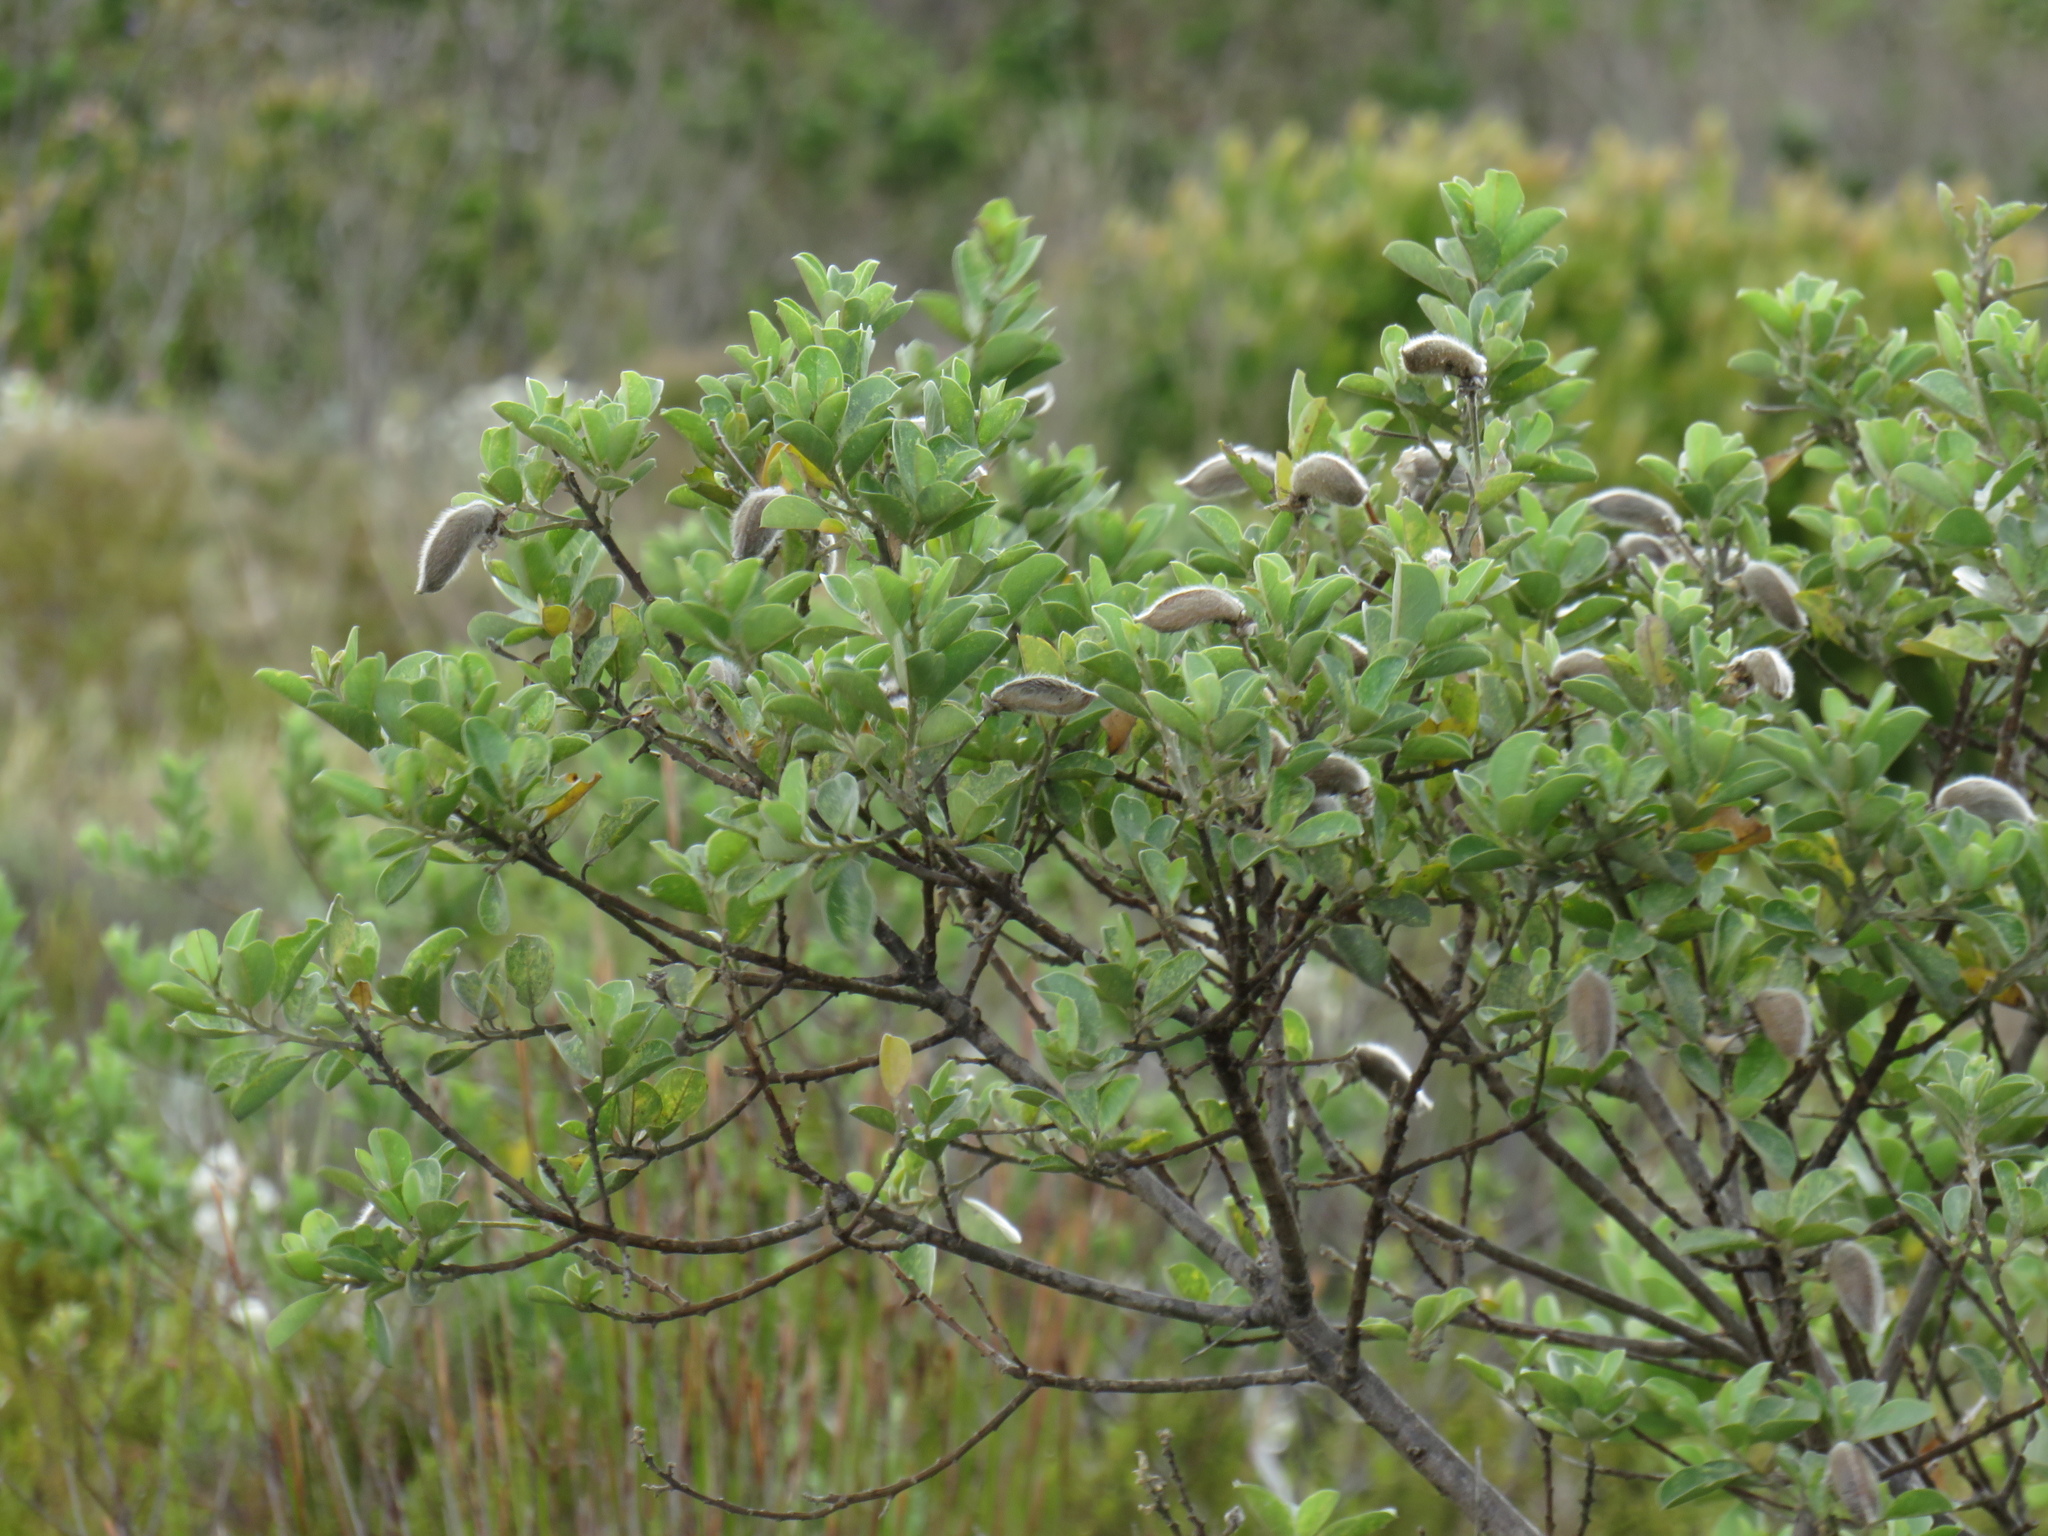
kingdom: Plantae
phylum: Tracheophyta
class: Magnoliopsida
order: Fabales
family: Fabaceae
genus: Podalyria
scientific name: Podalyria calyptrata
